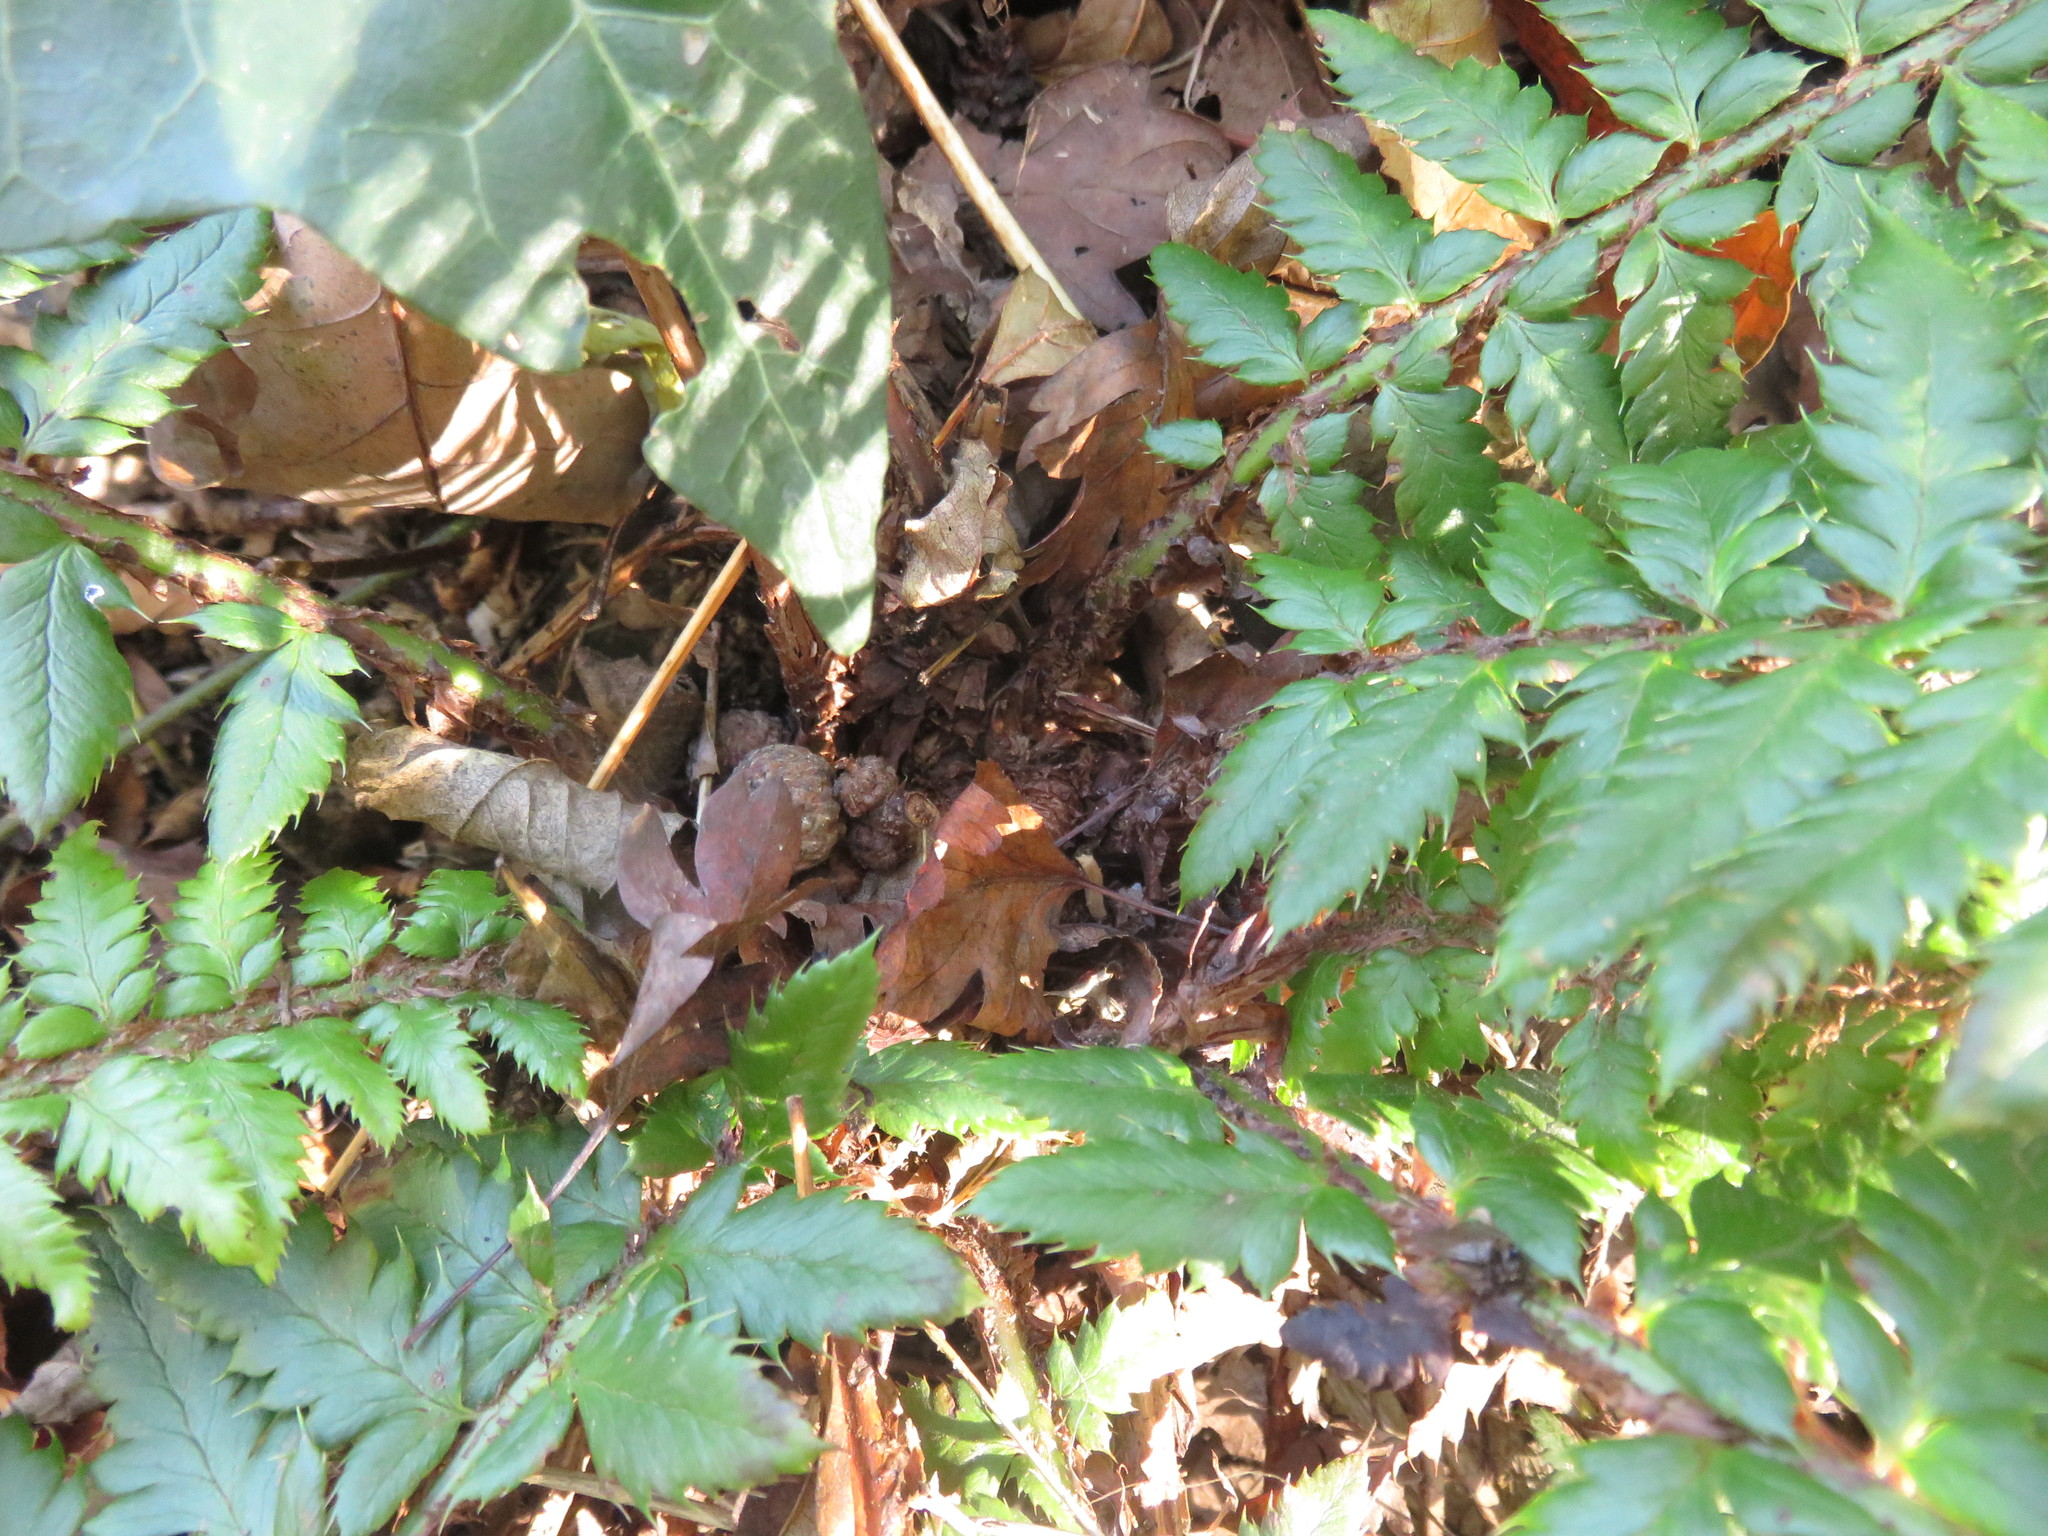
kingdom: Plantae
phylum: Tracheophyta
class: Polypodiopsida
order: Polypodiales
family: Dryopteridaceae
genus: Polystichum
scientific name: Polystichum aculeatum
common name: Hard shield-fern
